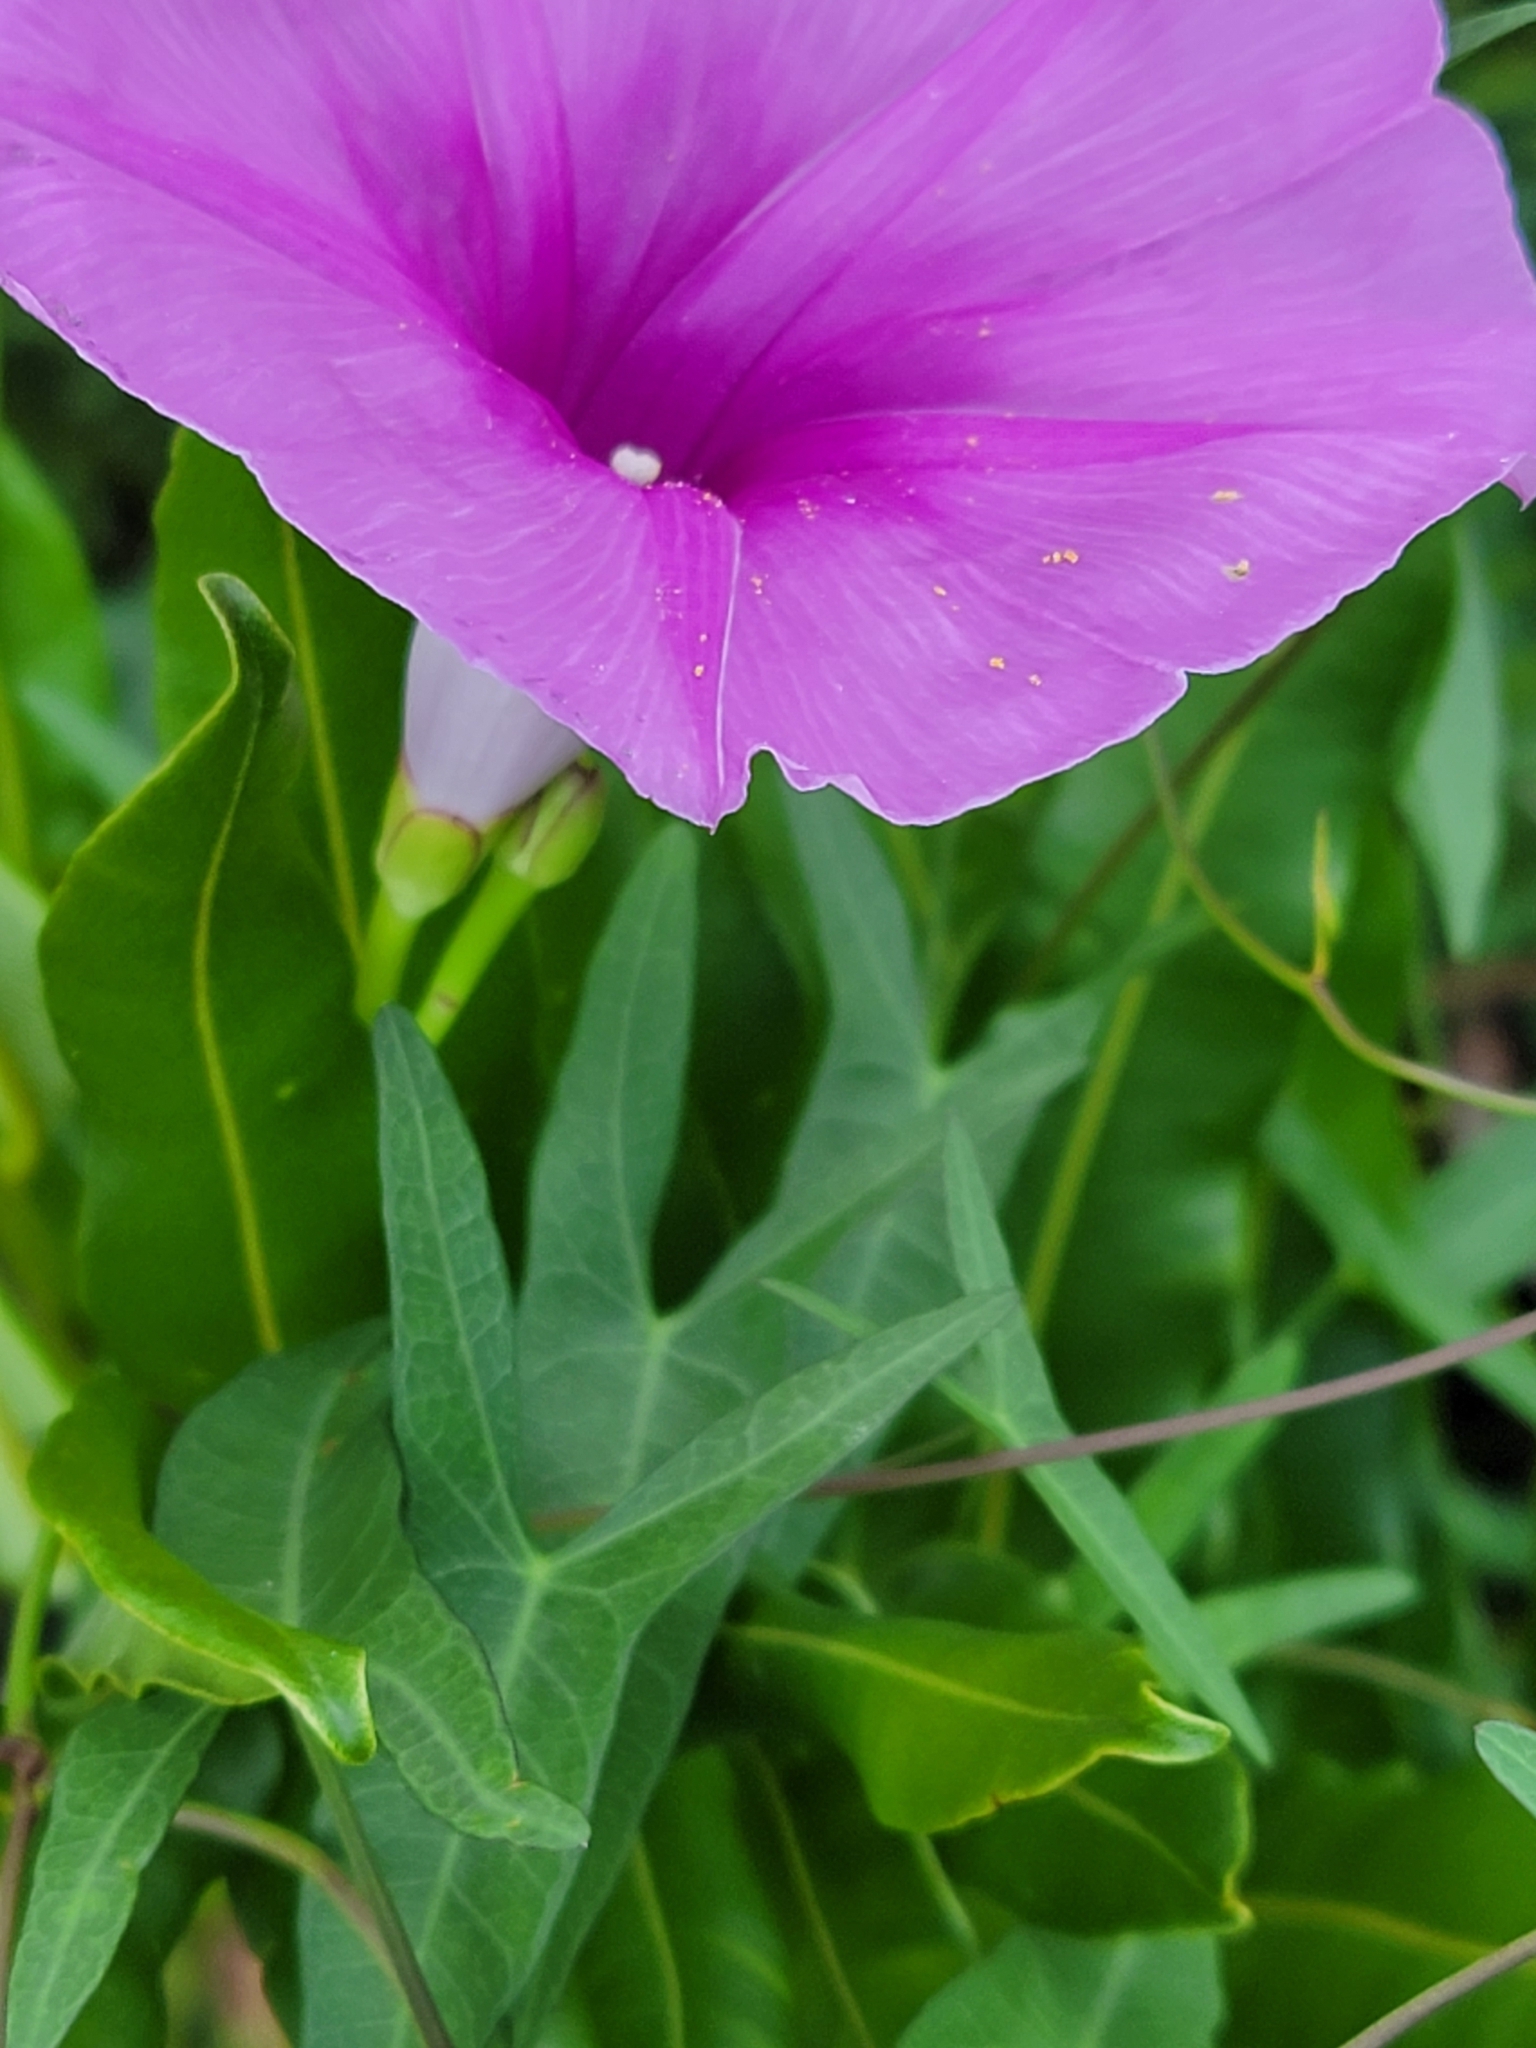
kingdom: Plantae
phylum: Tracheophyta
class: Magnoliopsida
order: Solanales
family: Convolvulaceae
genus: Ipomoea
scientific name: Ipomoea sagittata
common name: Saltmarsh morning glory
